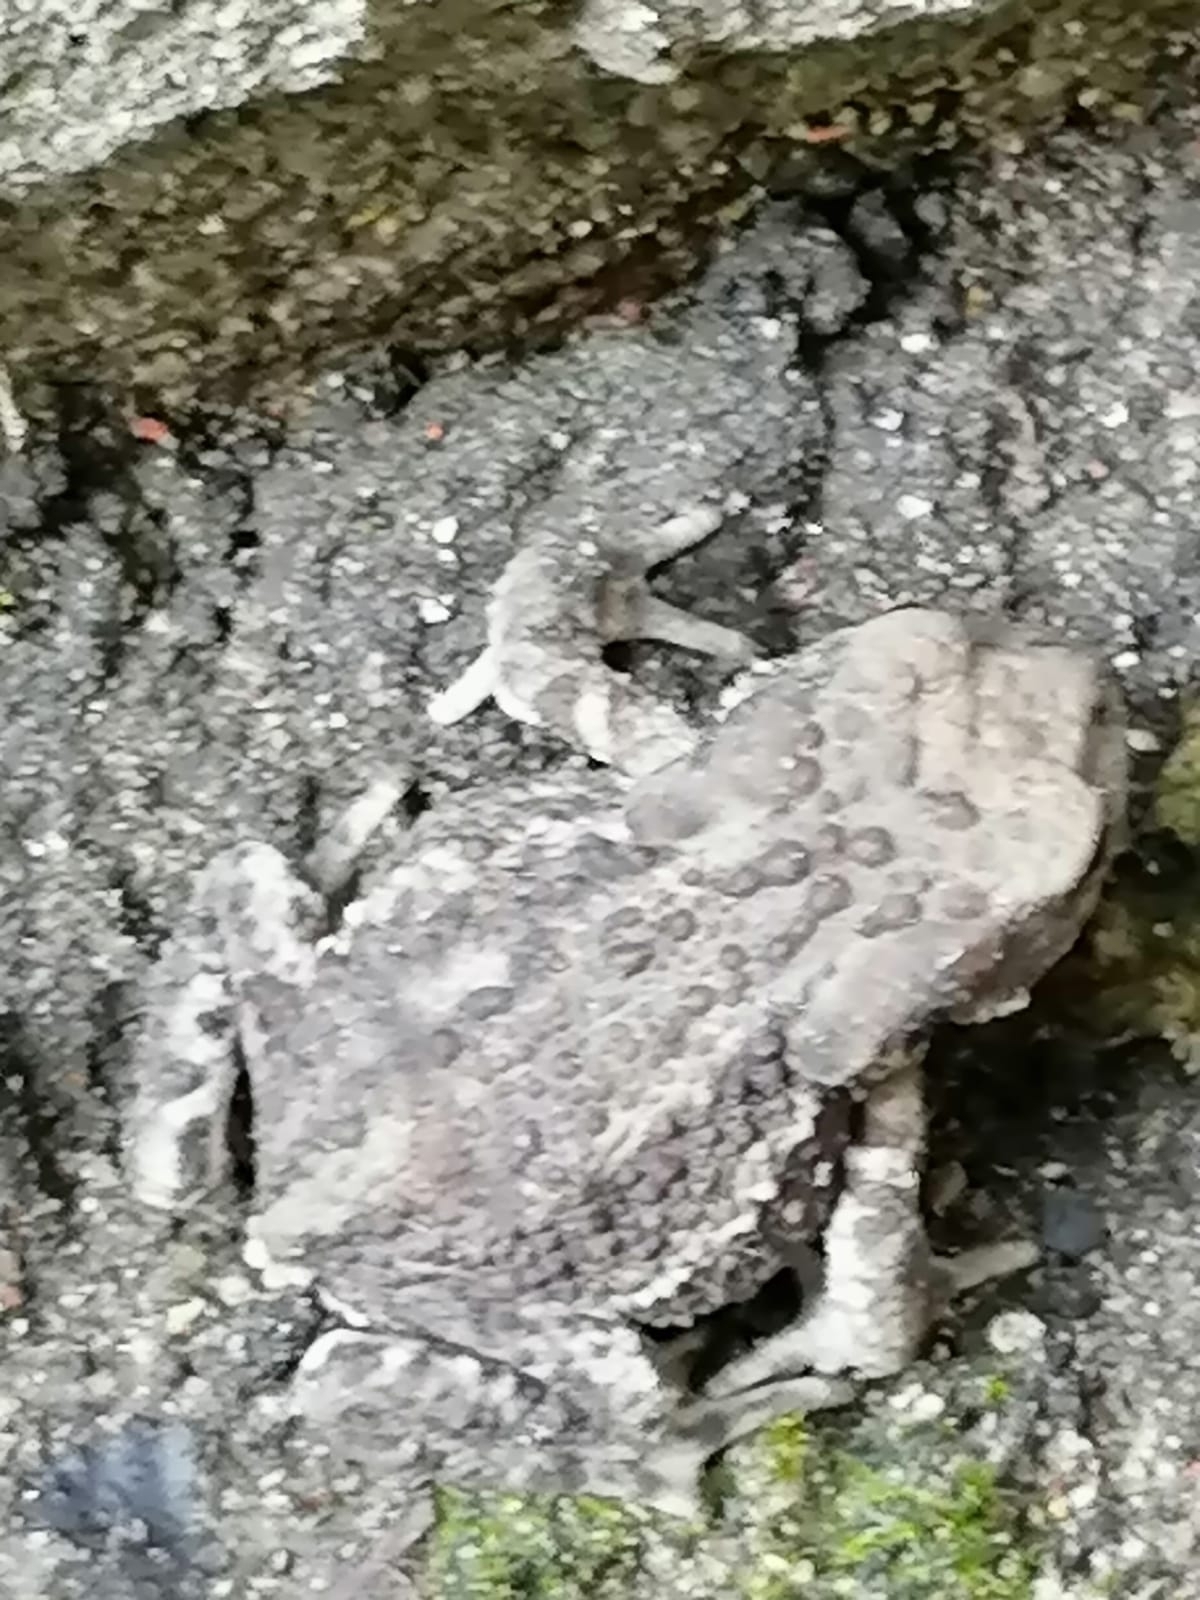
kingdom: Animalia
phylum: Chordata
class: Amphibia
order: Anura
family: Bufonidae
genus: Bufo
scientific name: Bufo bufo
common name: Common toad
